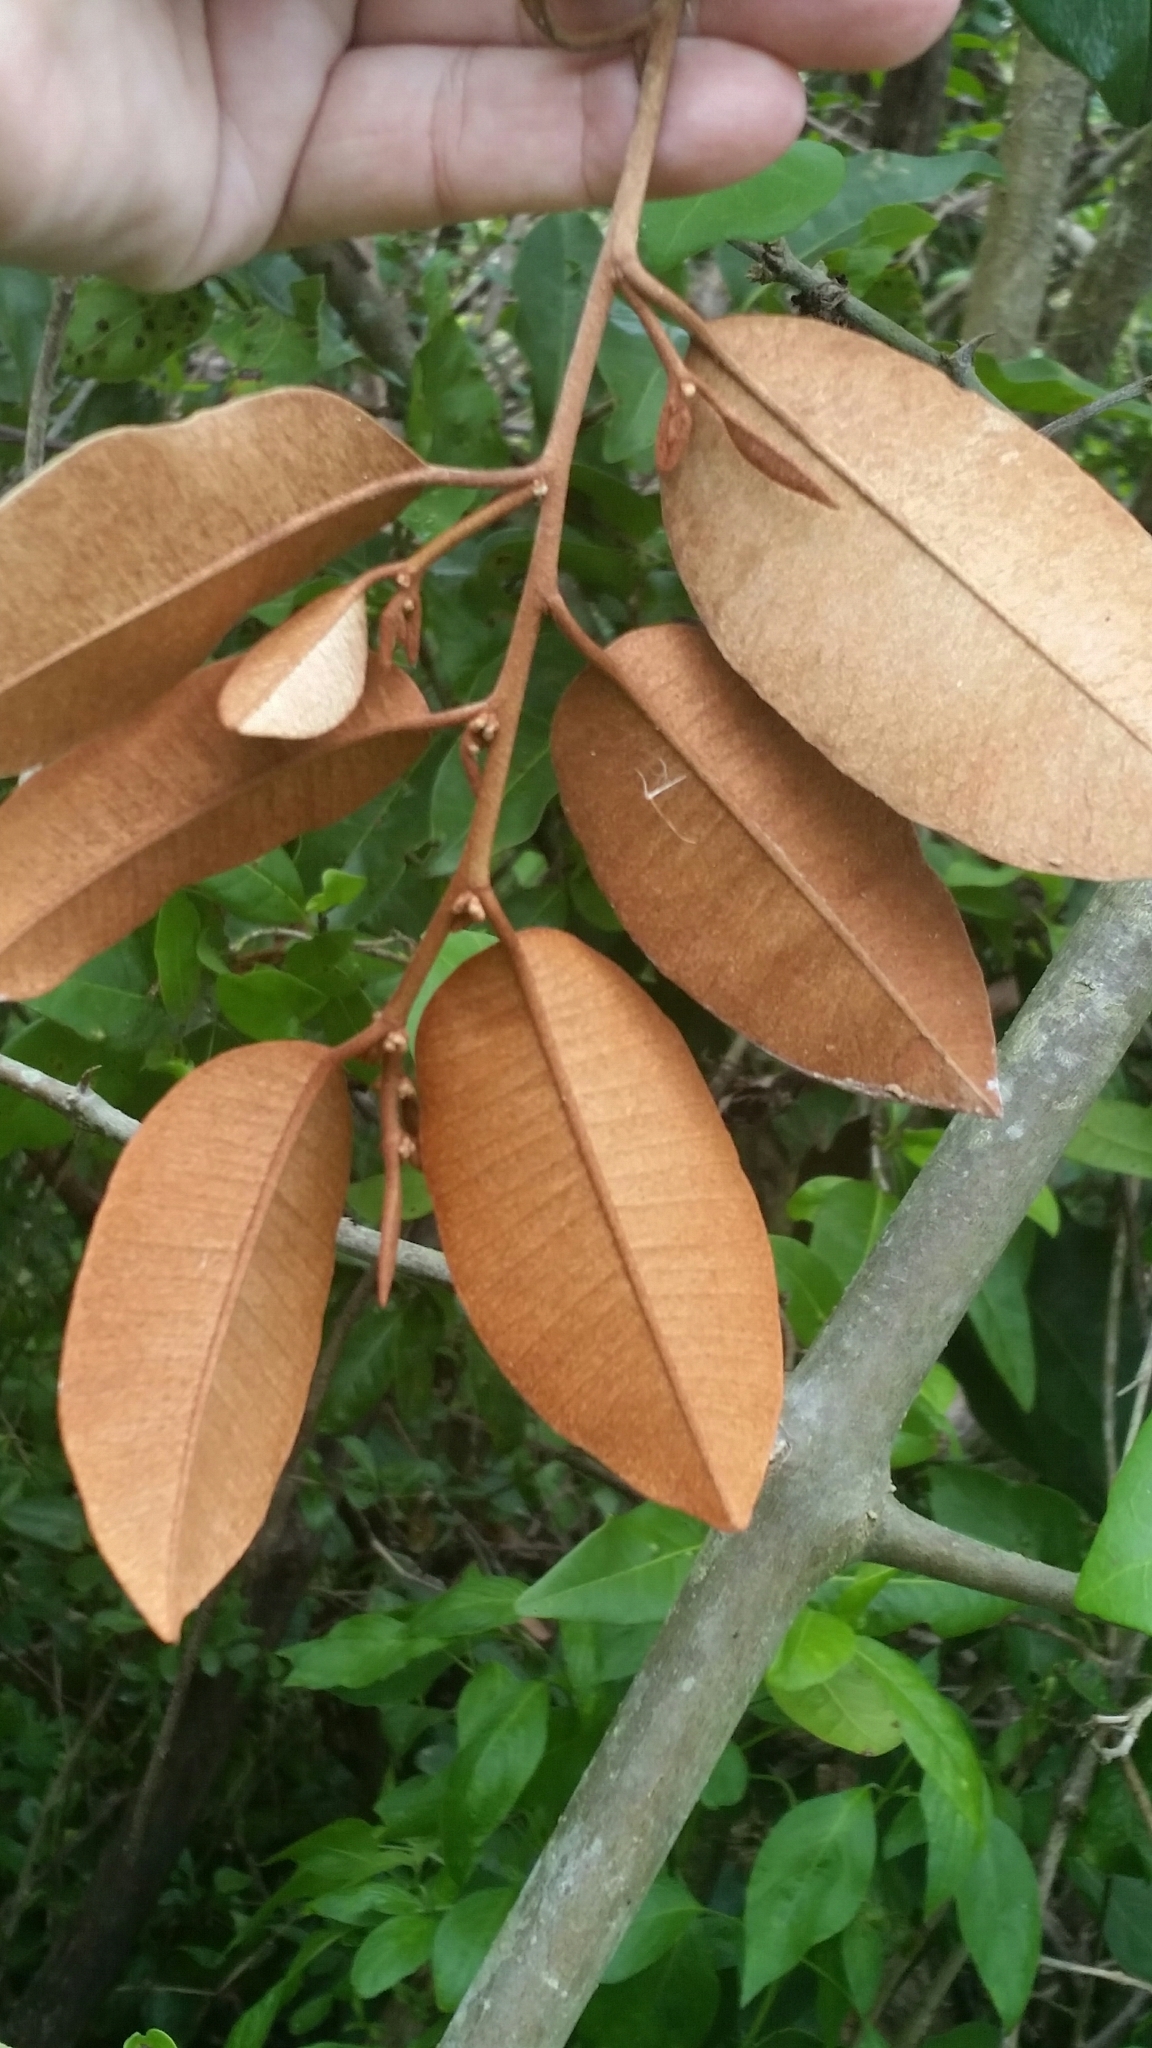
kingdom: Plantae
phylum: Tracheophyta
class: Magnoliopsida
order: Ericales
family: Sapotaceae
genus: Chrysophyllum
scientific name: Chrysophyllum oliviforme
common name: Satinleaf
